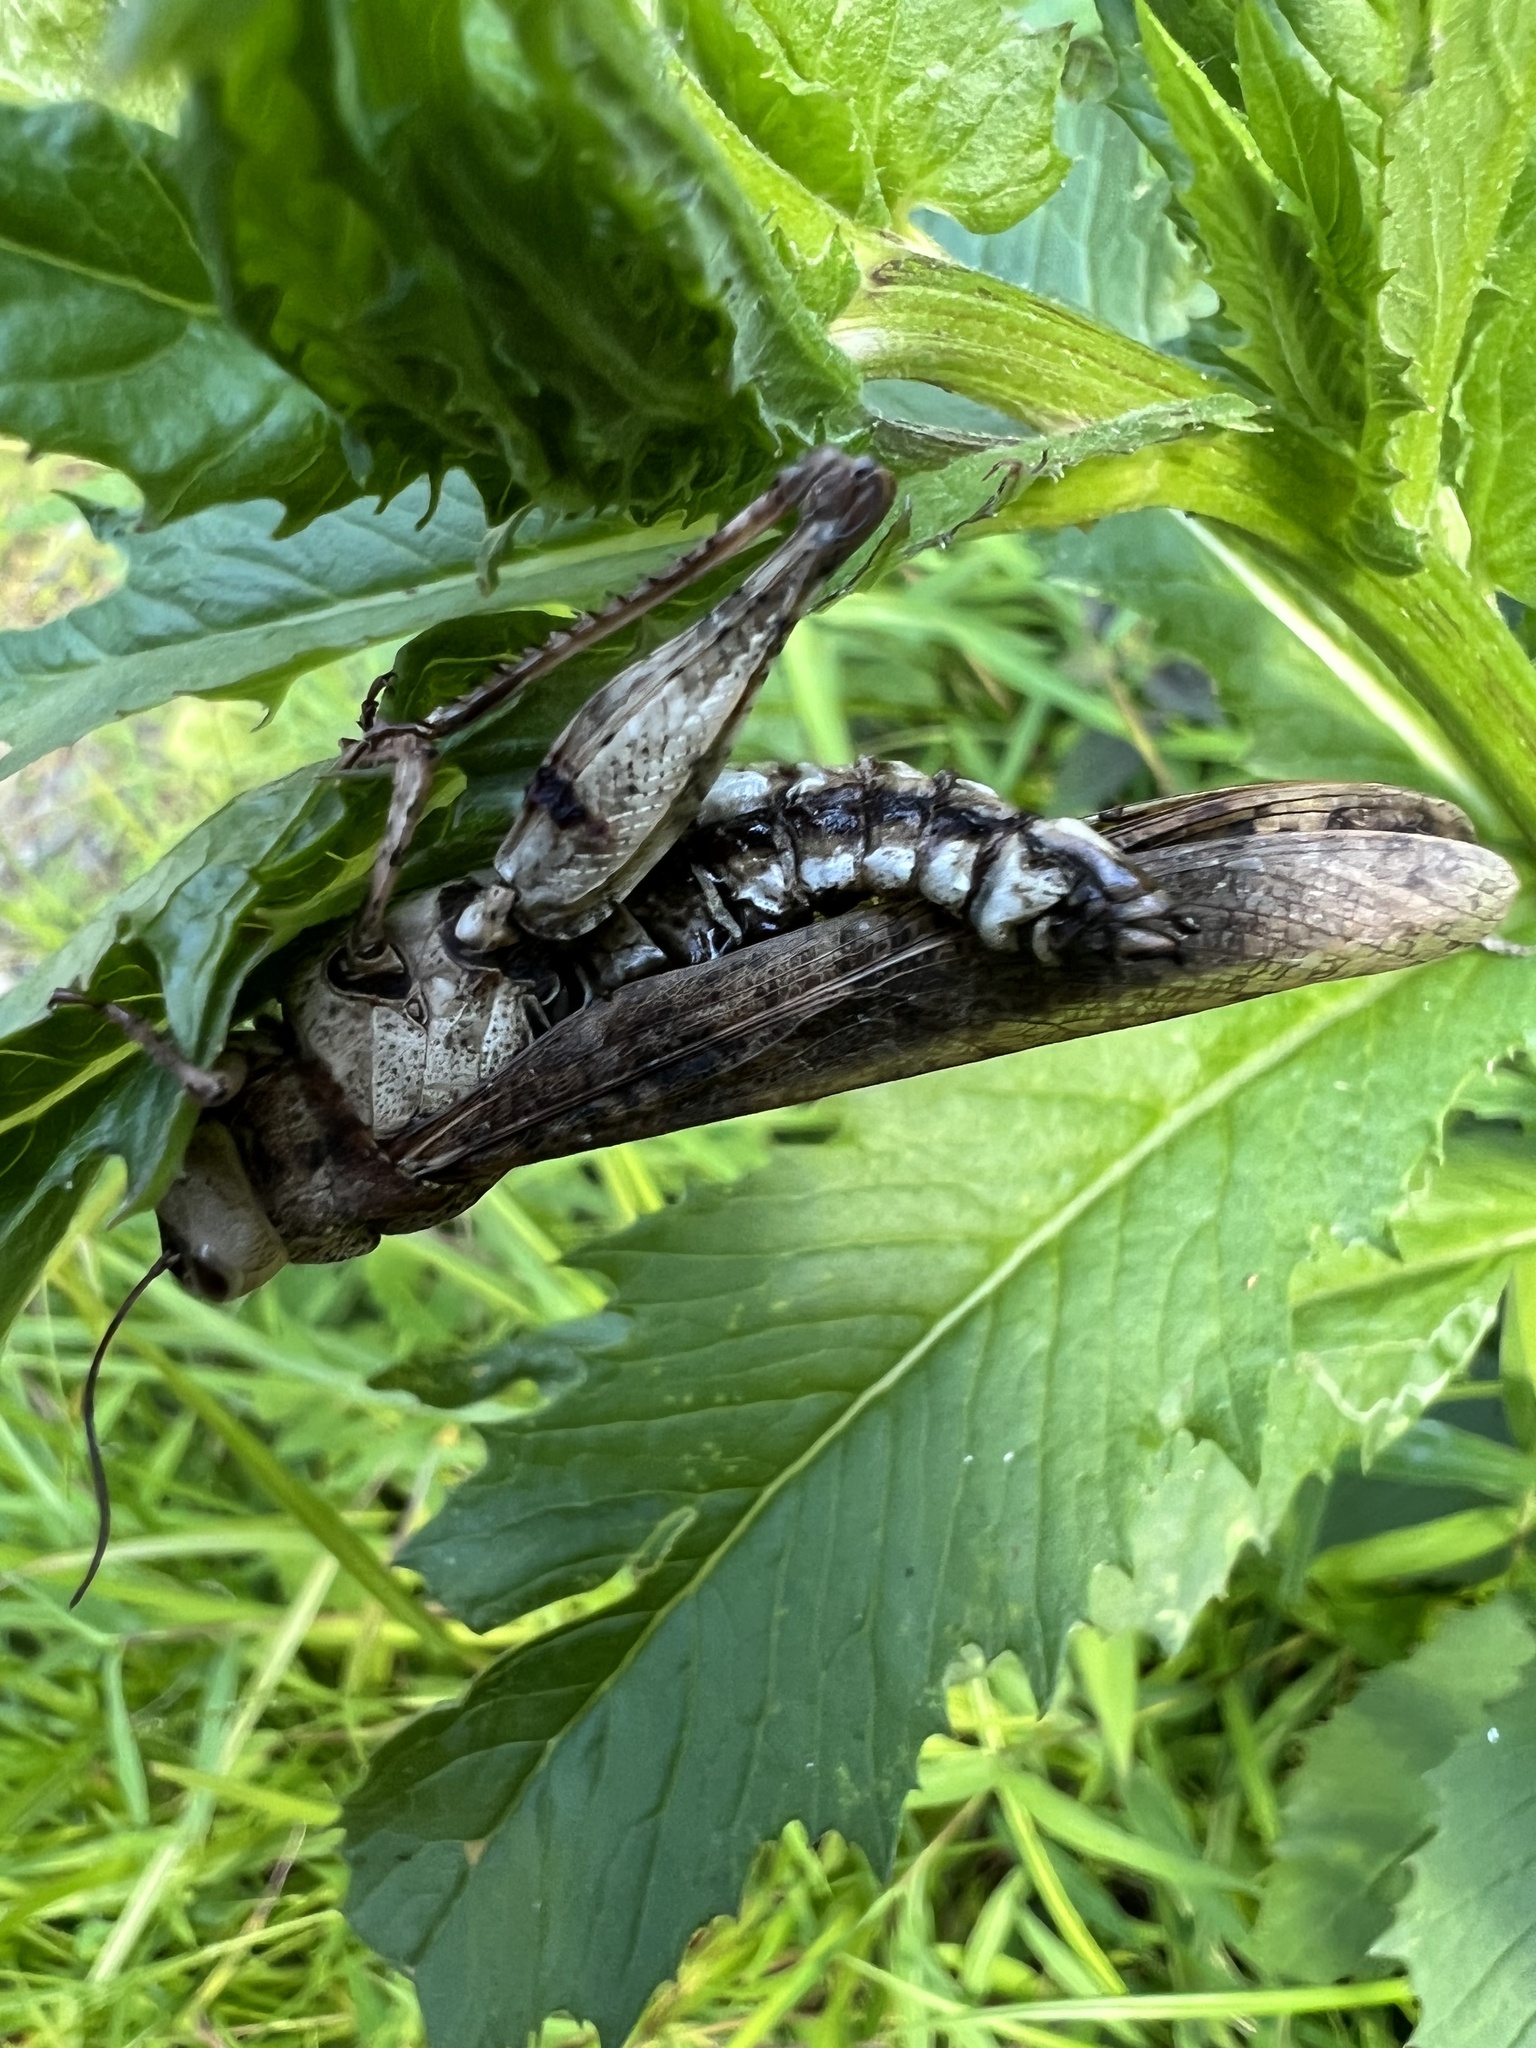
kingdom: Animalia
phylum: Arthropoda
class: Insecta
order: Orthoptera
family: Acrididae
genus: Dissosteira
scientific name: Dissosteira carolina
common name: Carolina grasshopper
